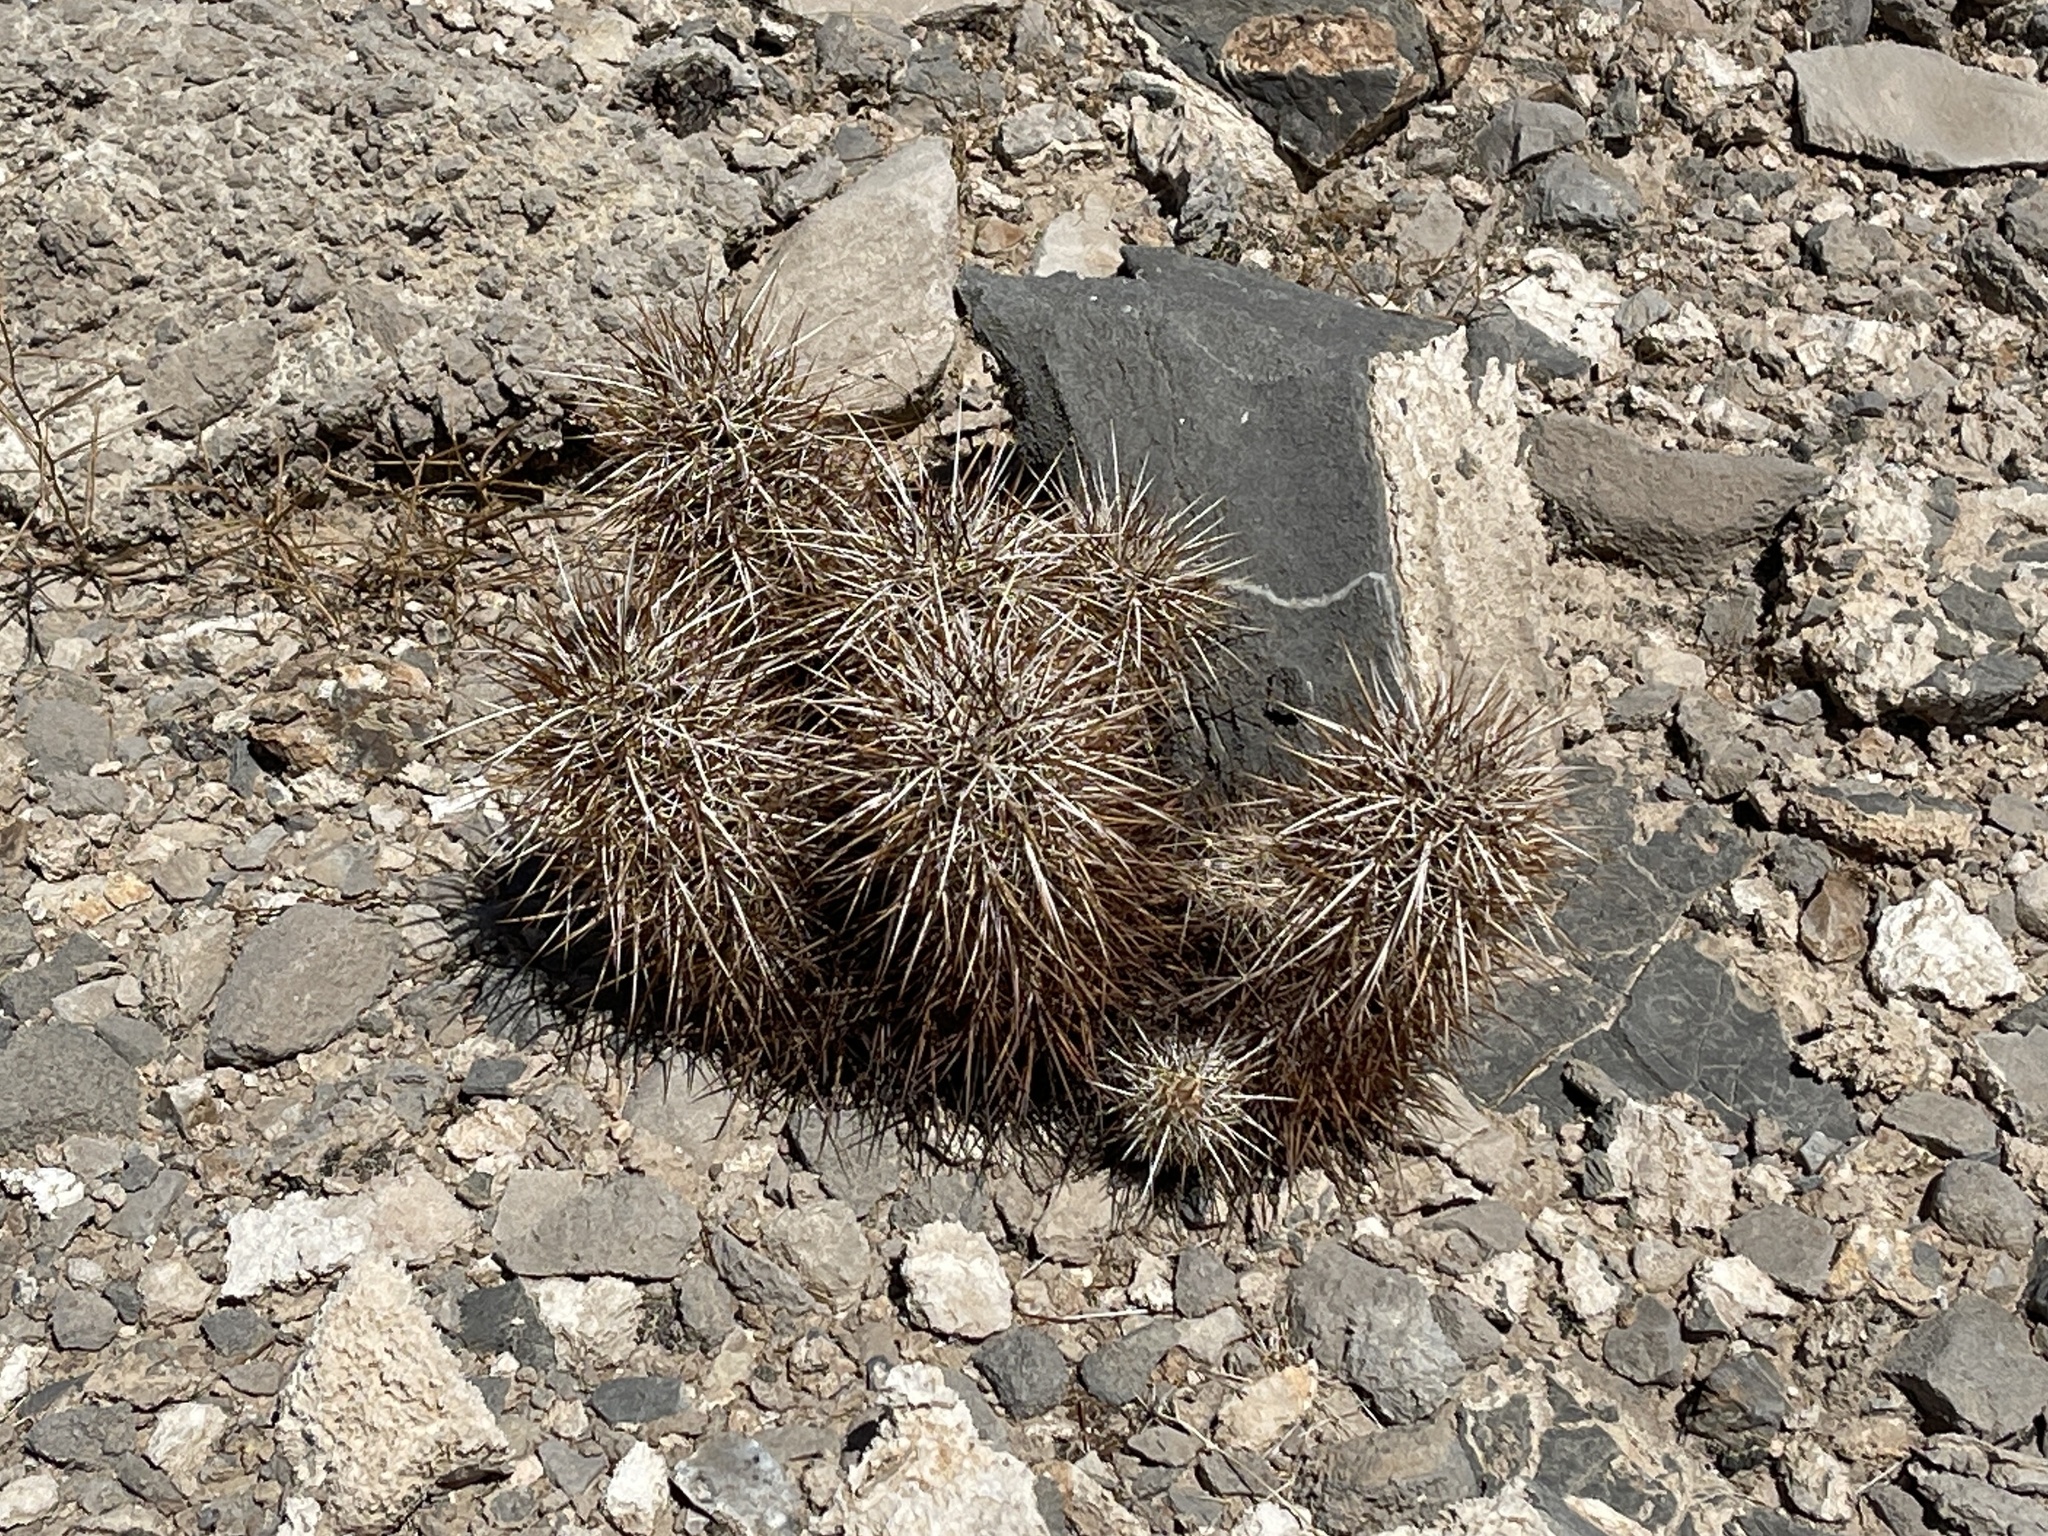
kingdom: Plantae
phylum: Tracheophyta
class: Magnoliopsida
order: Caryophyllales
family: Cactaceae
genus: Echinocereus
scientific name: Echinocereus engelmannii
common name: Engelmann's hedgehog cactus
